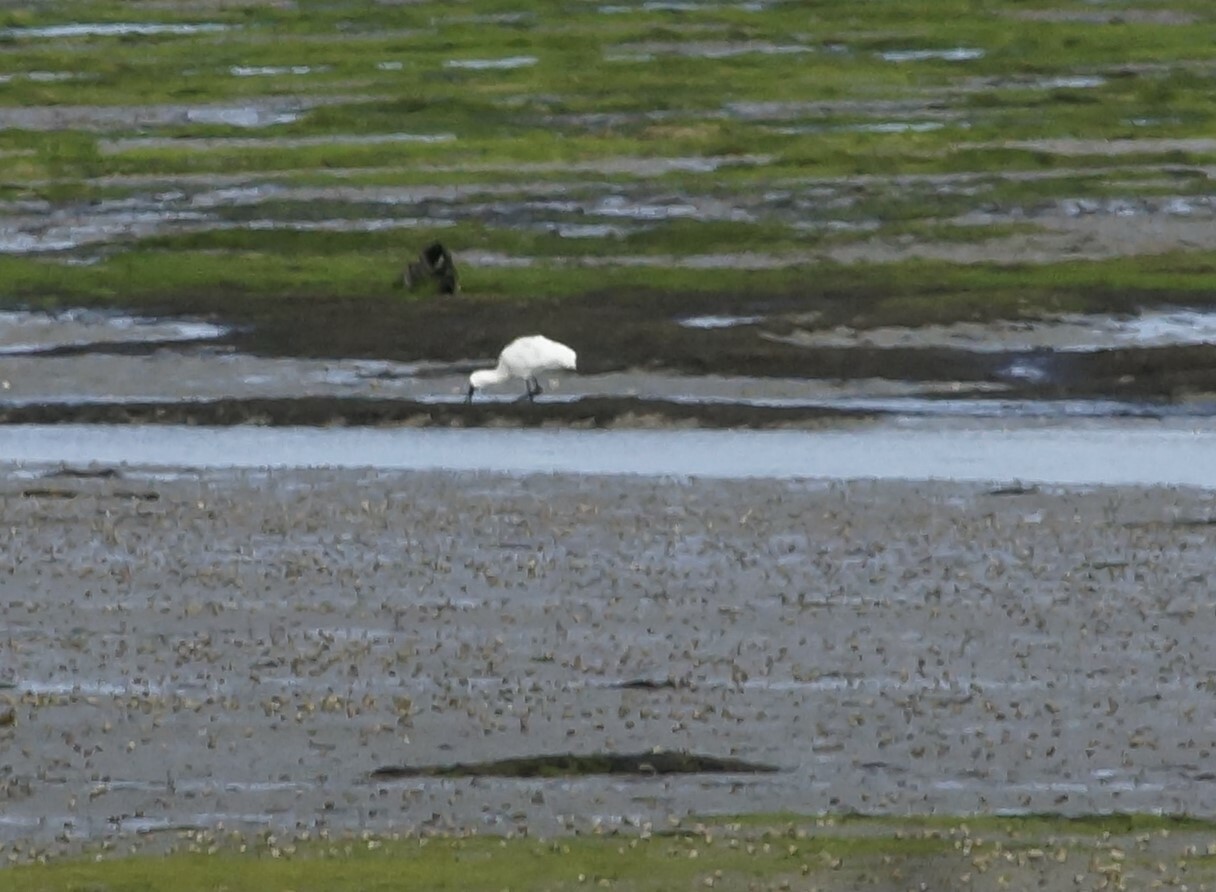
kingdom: Animalia
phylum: Chordata
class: Aves
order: Pelecaniformes
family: Threskiornithidae
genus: Platalea
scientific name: Platalea regia
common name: Royal spoonbill
